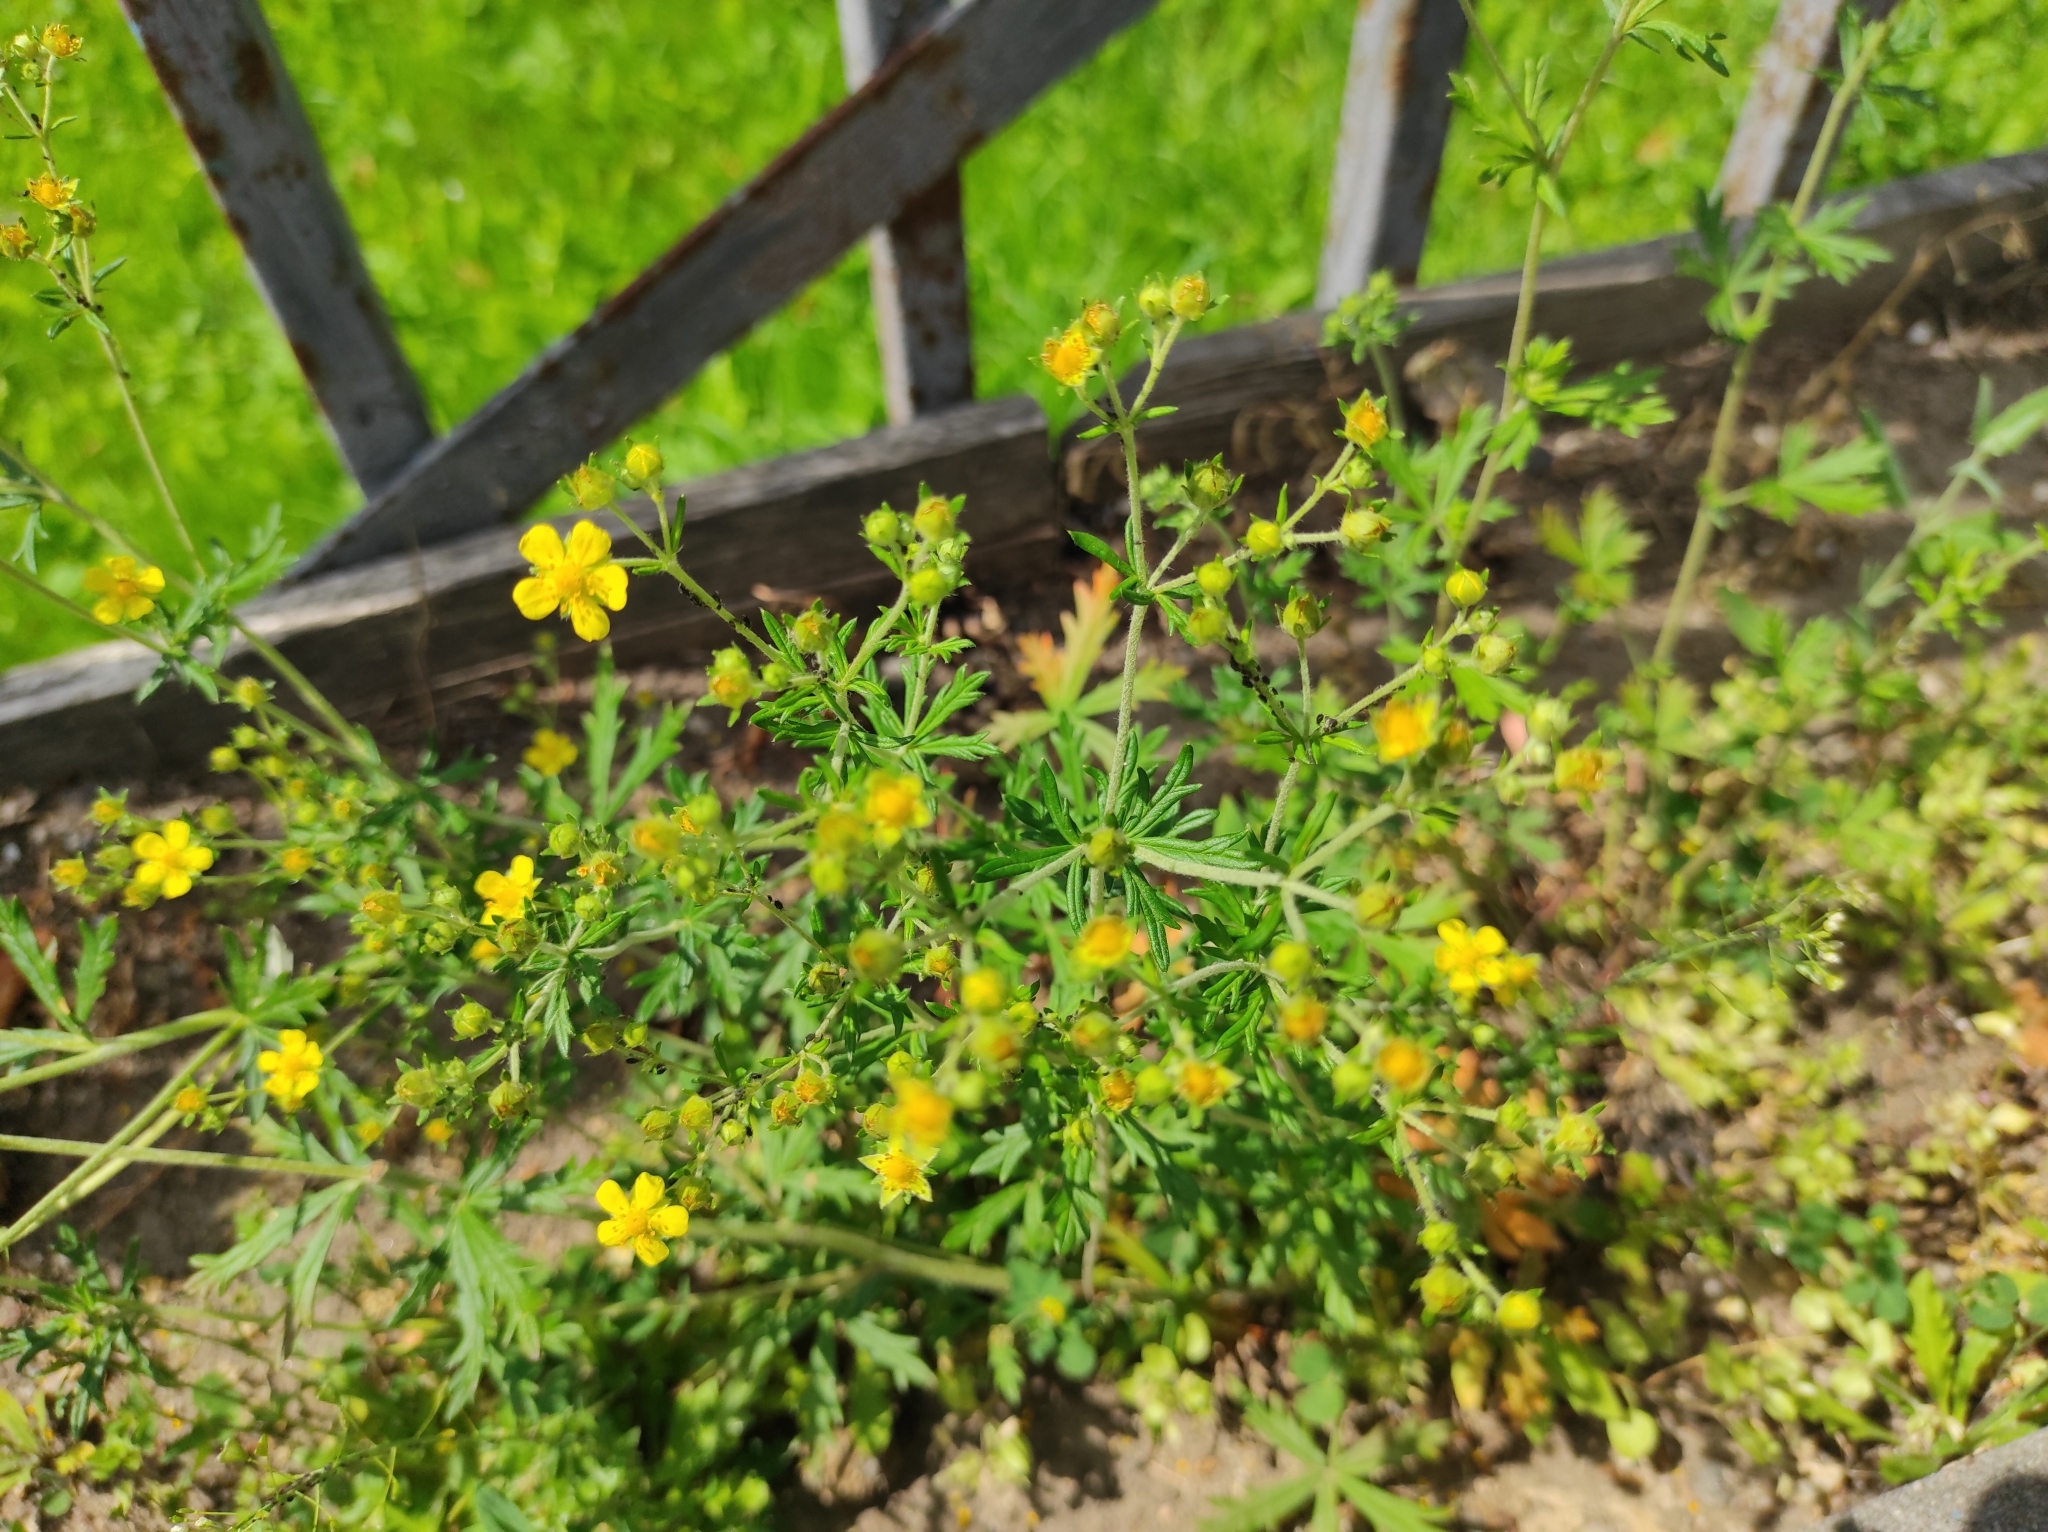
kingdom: Plantae
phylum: Tracheophyta
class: Magnoliopsida
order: Rosales
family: Rosaceae
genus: Potentilla
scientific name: Potentilla argentea
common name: Hoary cinquefoil
